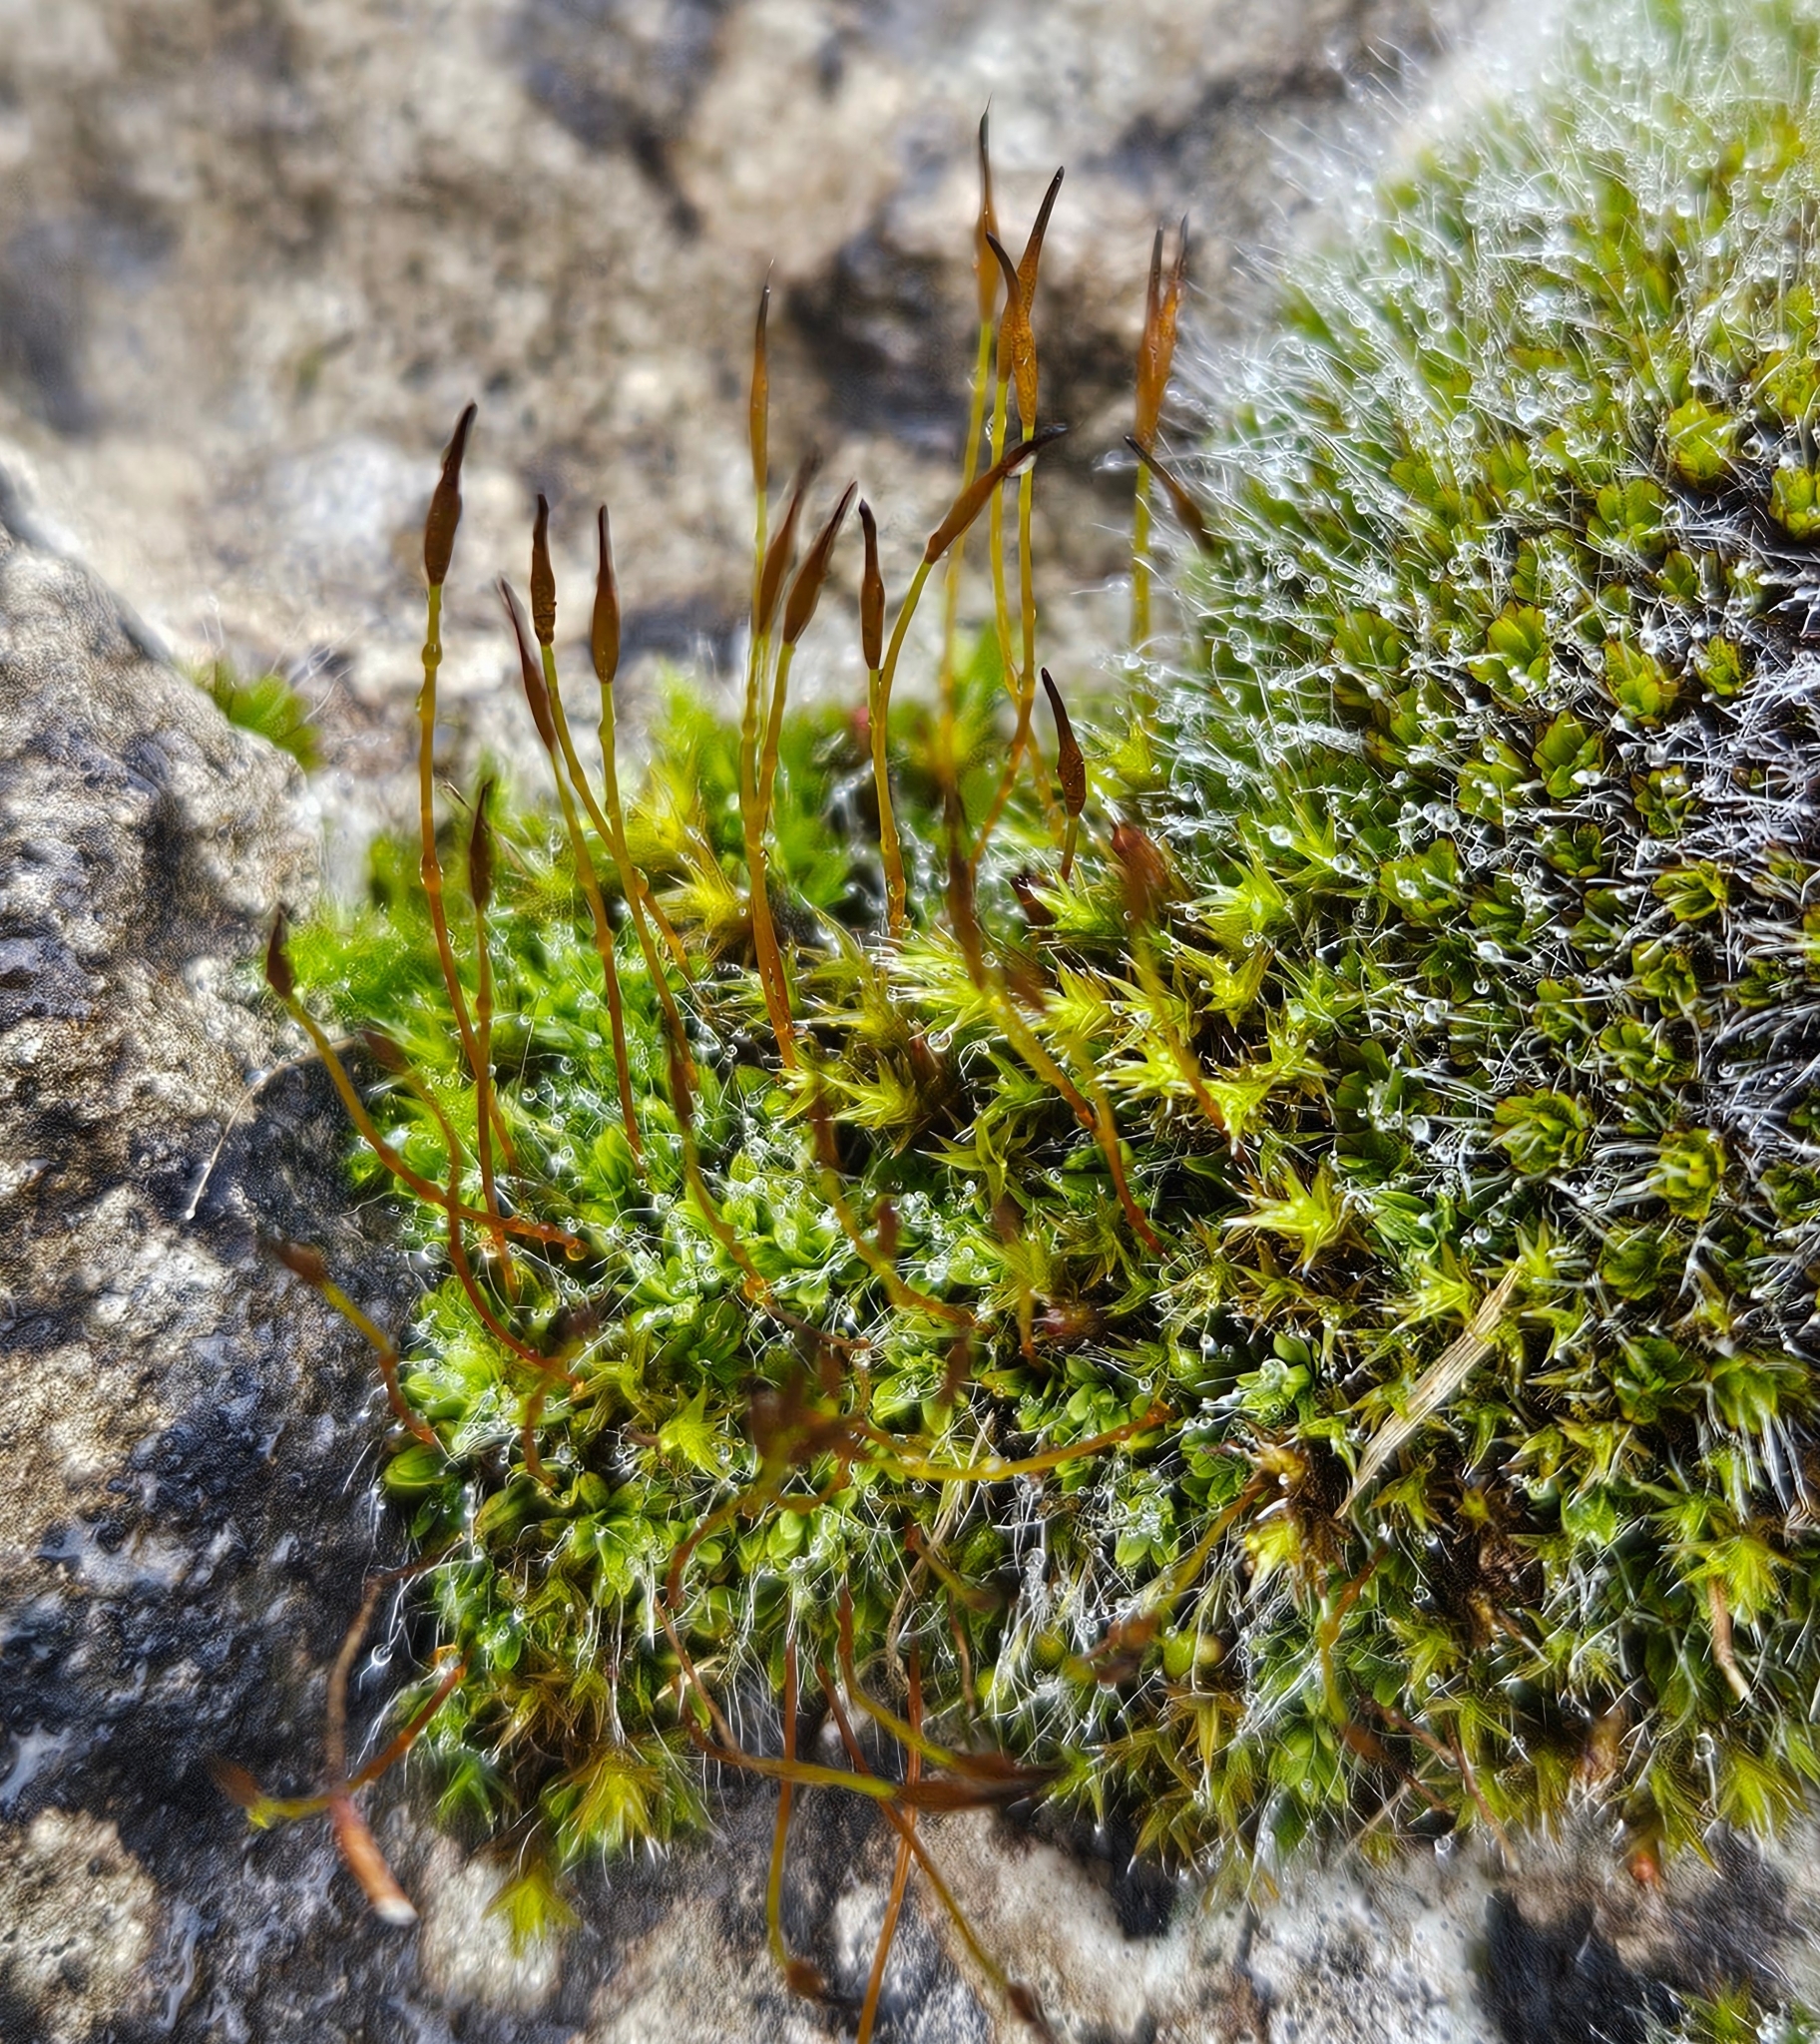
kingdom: Plantae
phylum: Bryophyta
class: Bryopsida
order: Pottiales
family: Pottiaceae
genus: Tortula
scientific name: Tortula muralis
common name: Wall screw-moss
